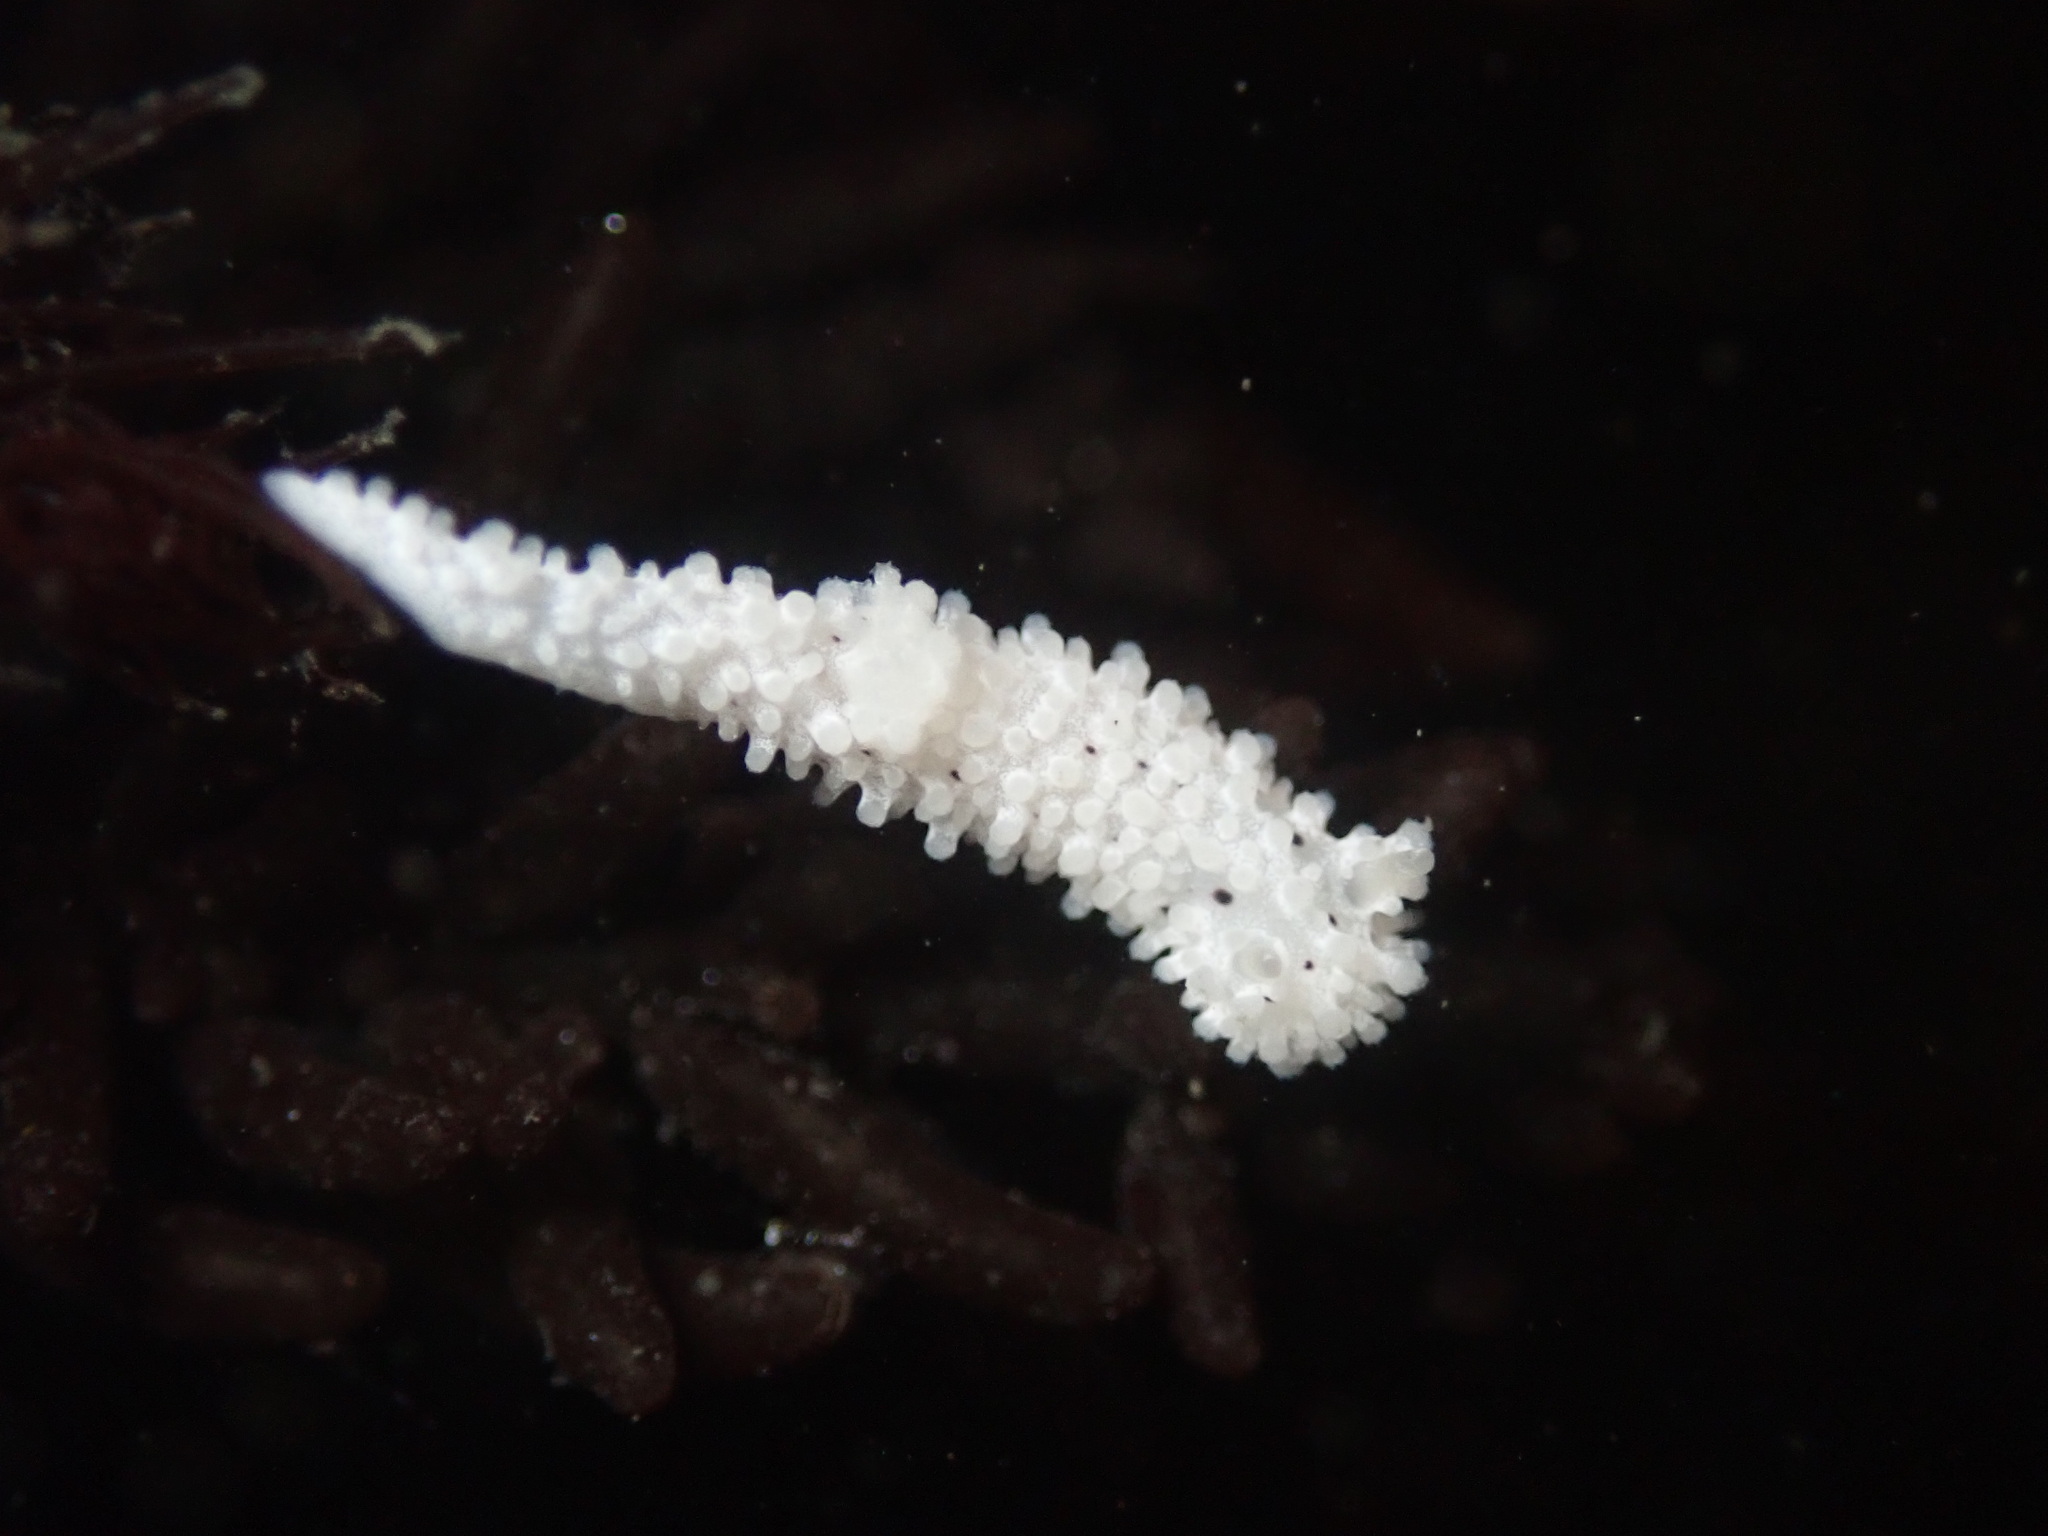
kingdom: Animalia
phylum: Mollusca
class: Gastropoda
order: Nudibranchia
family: Aegiridae
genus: Aegires
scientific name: Aegires albopunctatus
